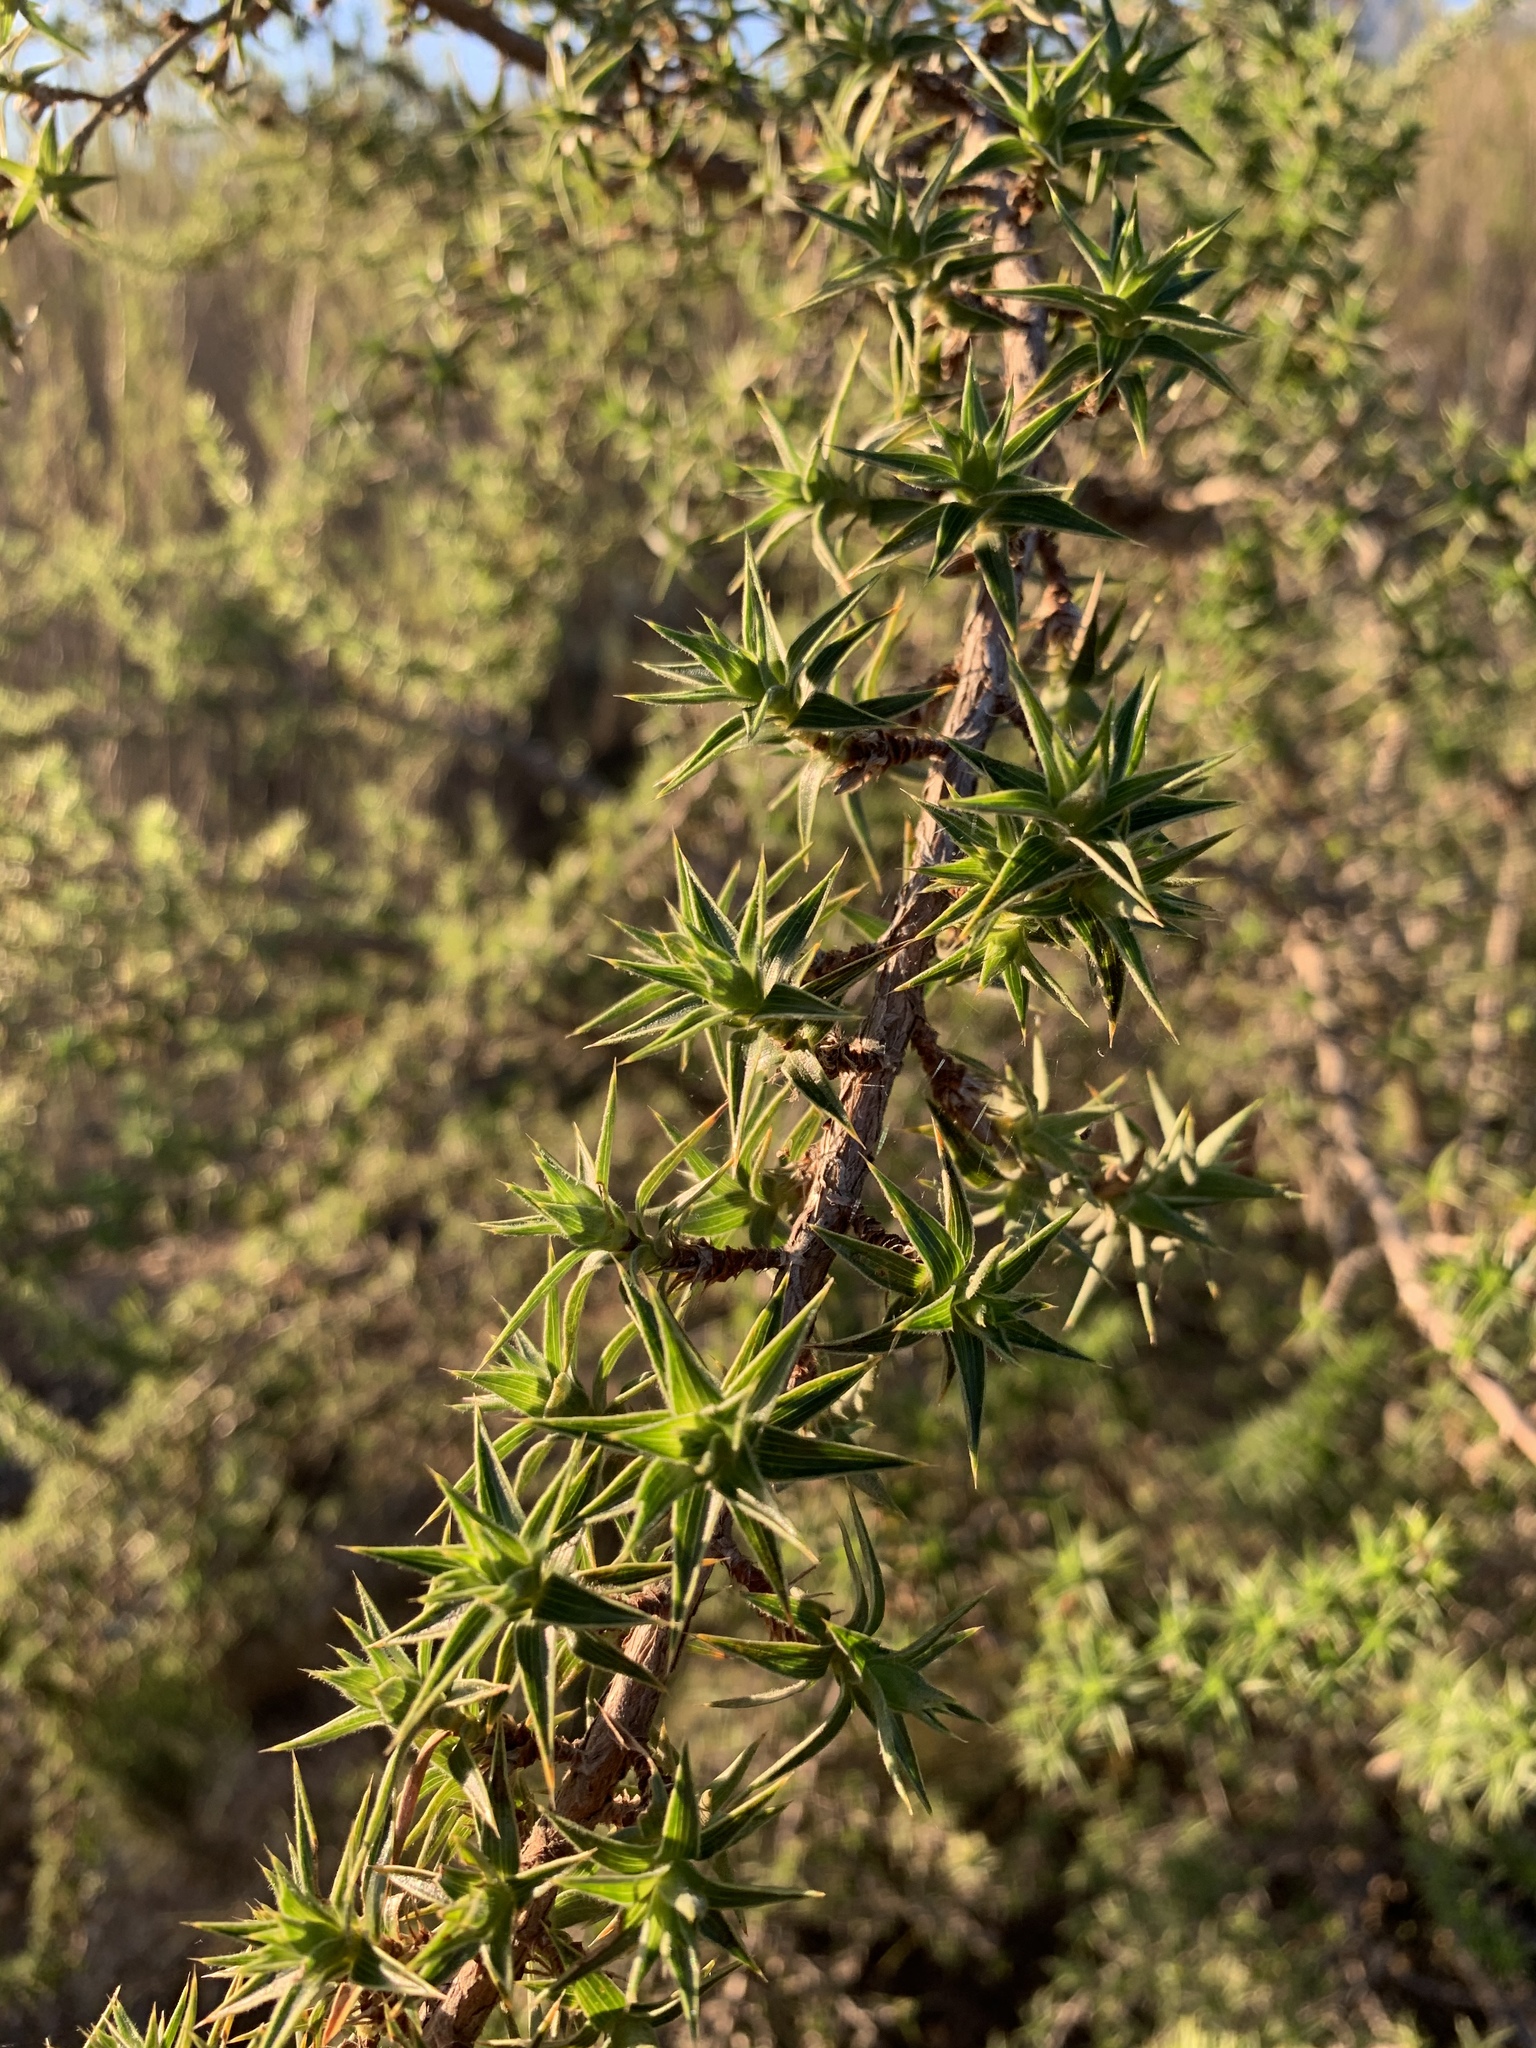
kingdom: Plantae
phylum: Tracheophyta
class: Magnoliopsida
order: Rosales
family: Rosaceae
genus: Cliffortia
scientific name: Cliffortia ruscifolia
